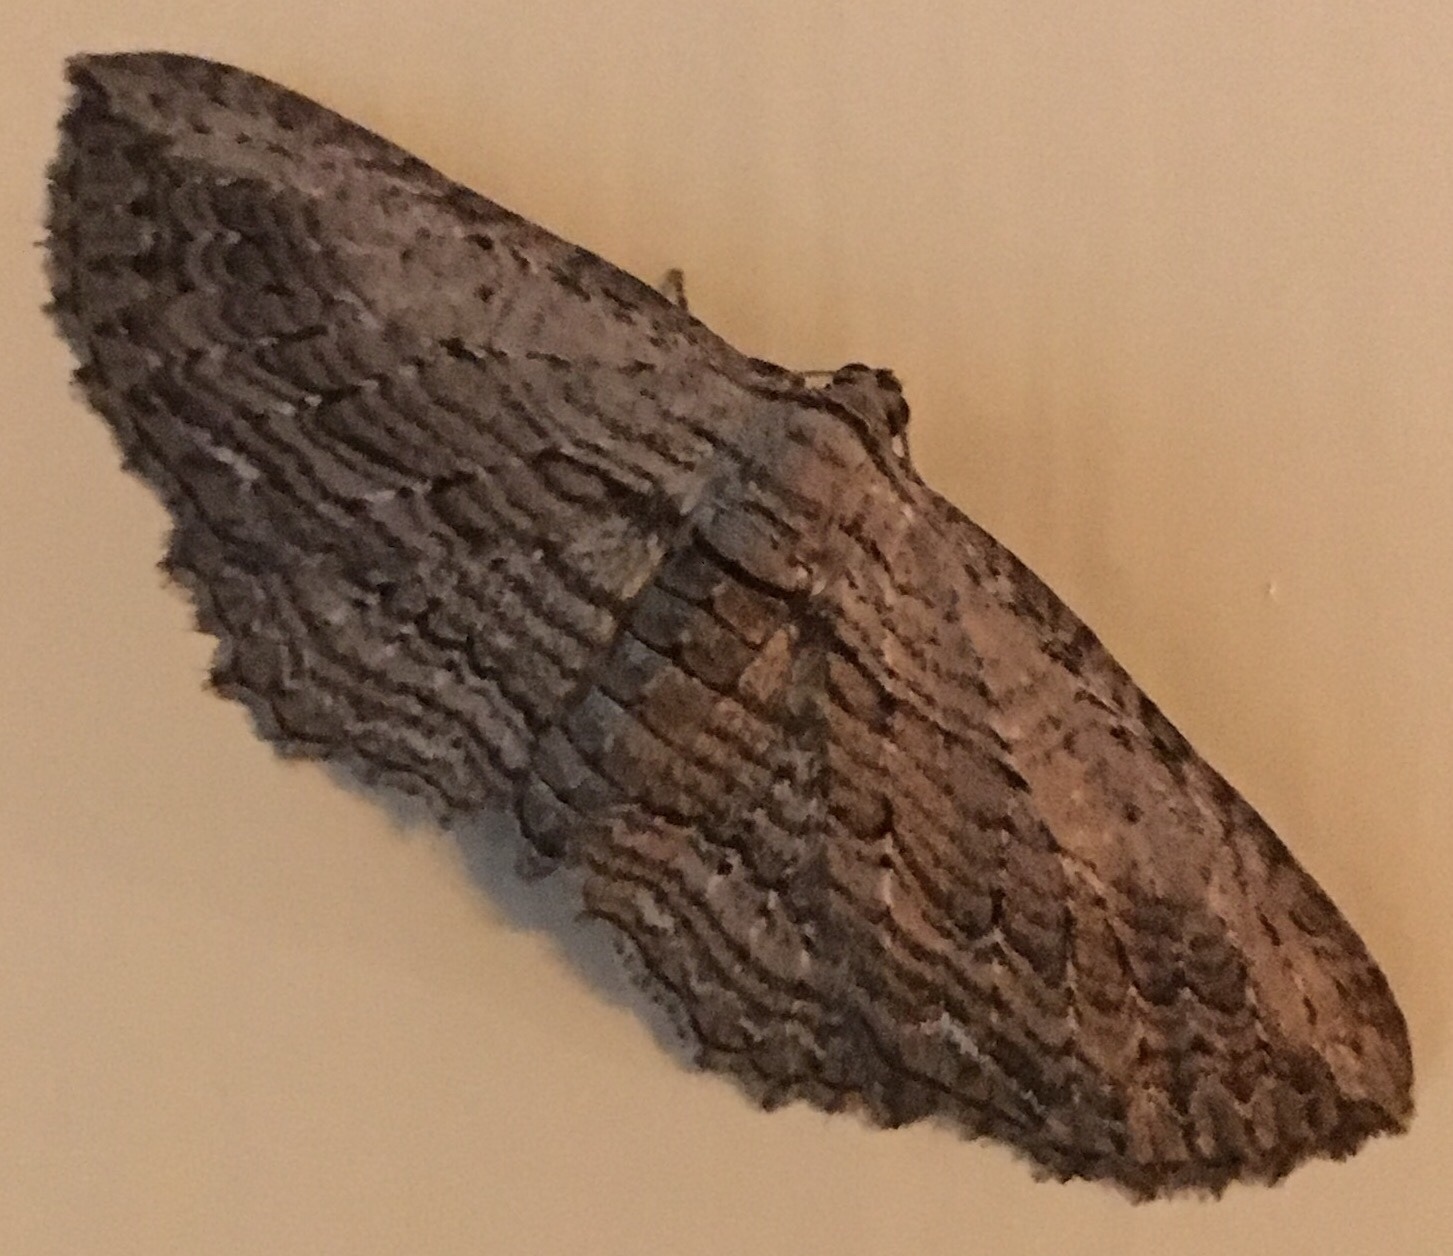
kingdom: Animalia
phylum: Arthropoda
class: Insecta
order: Lepidoptera
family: Geometridae
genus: Horisme
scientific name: Horisme intestinata
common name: Brown bark carpet
